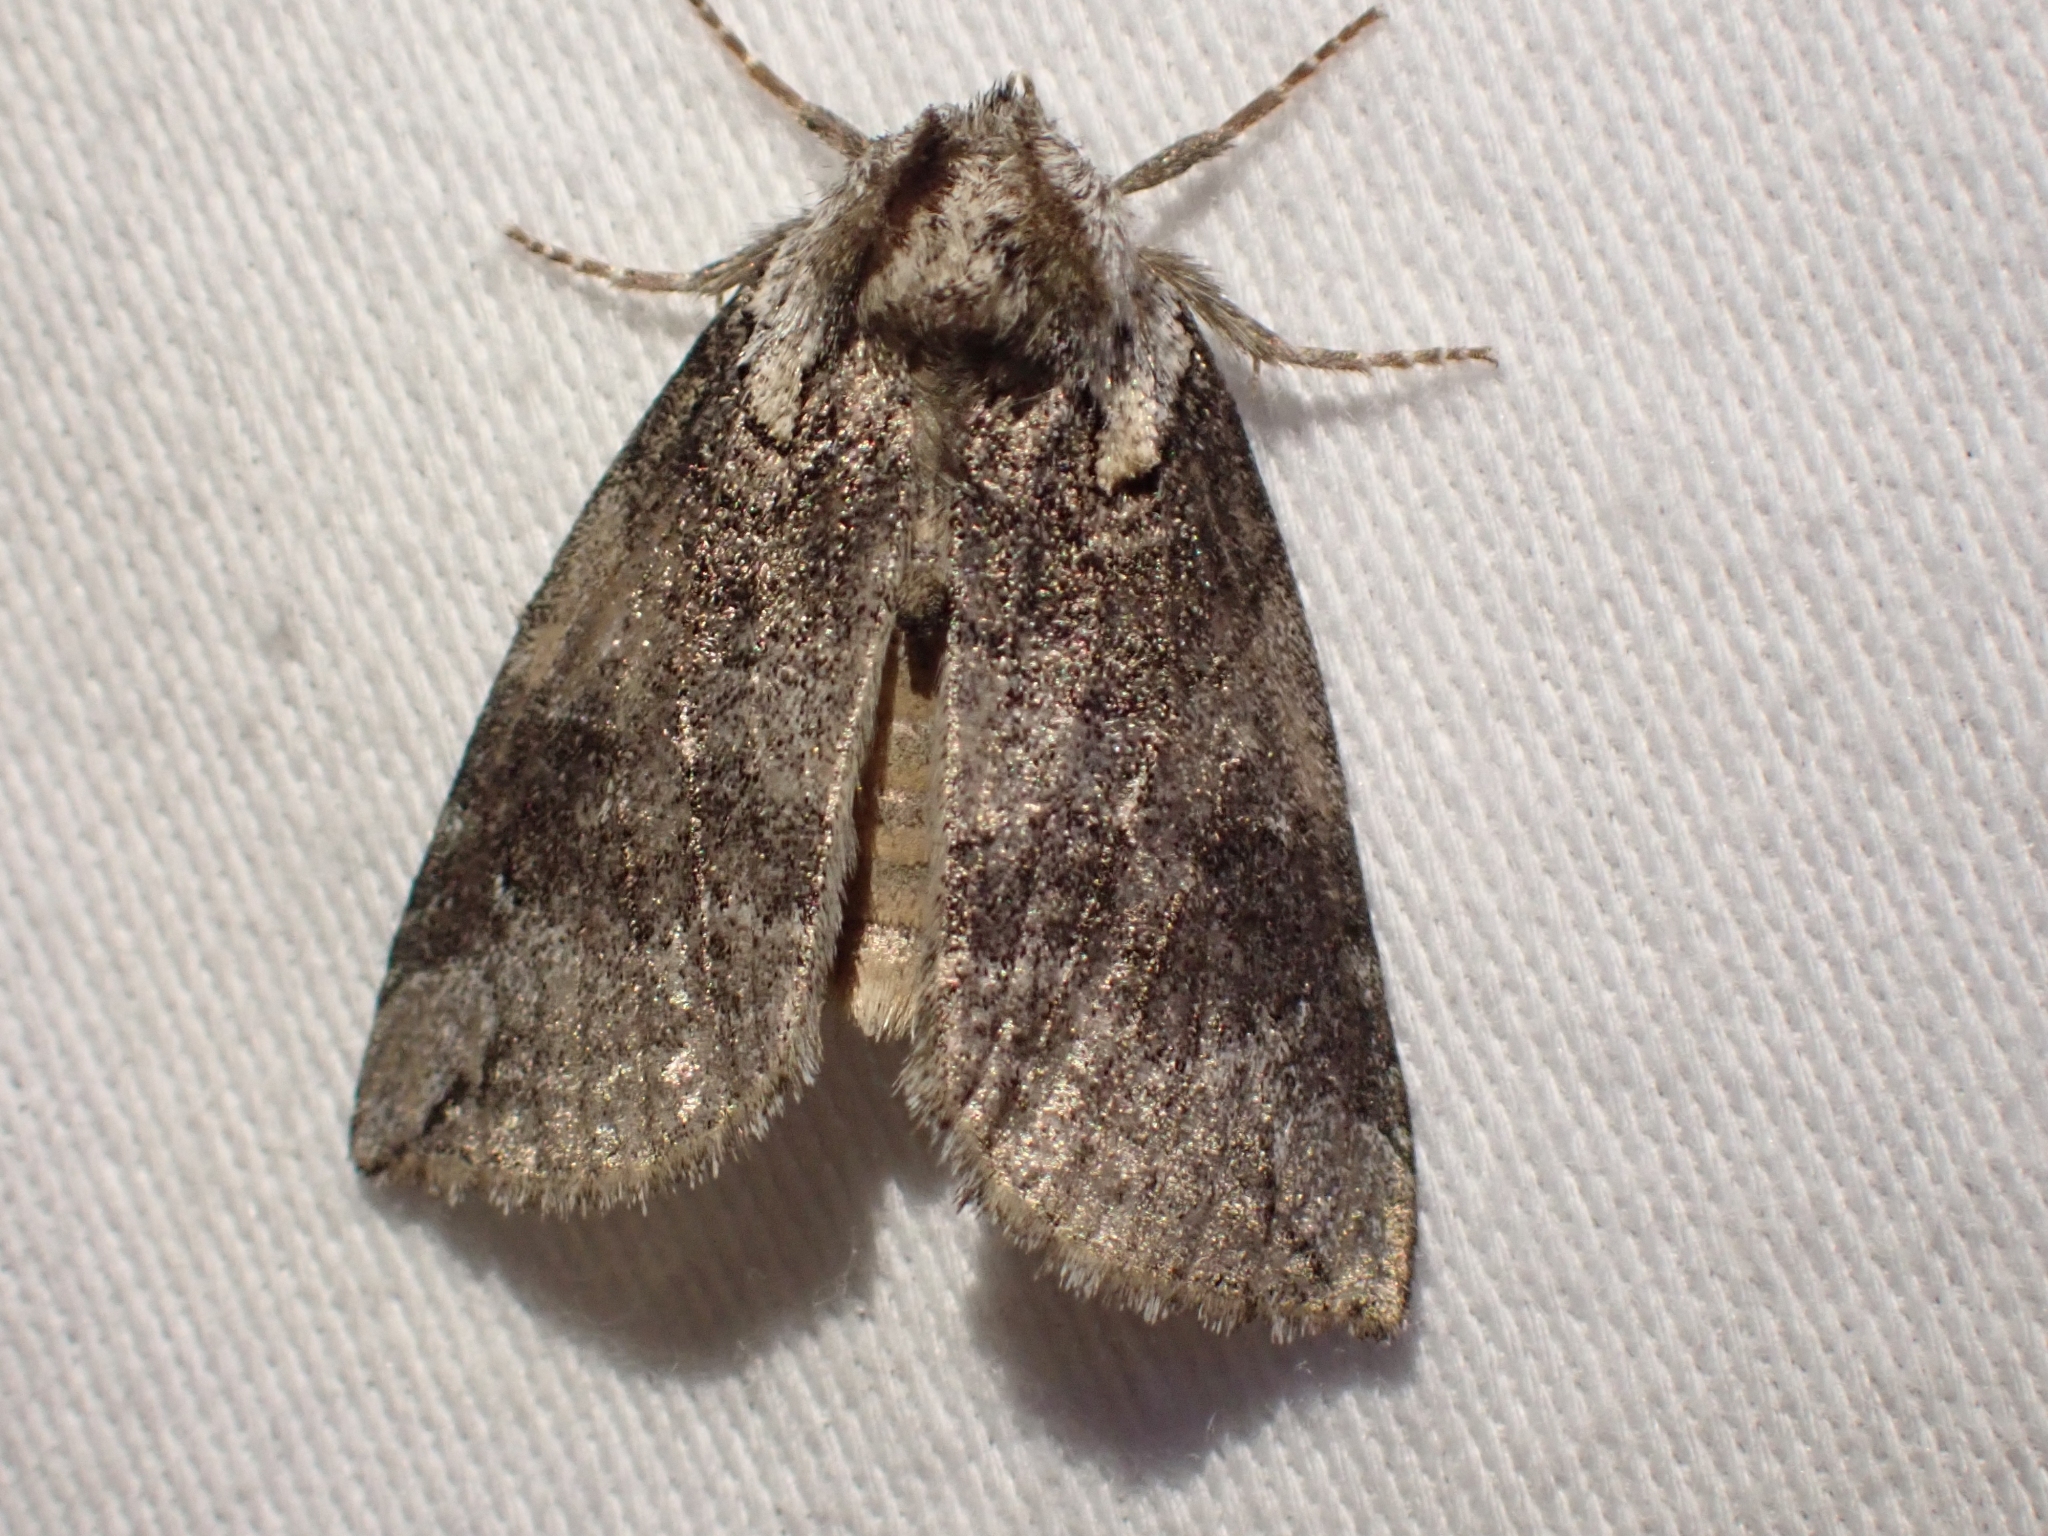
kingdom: Animalia
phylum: Arthropoda
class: Insecta
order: Lepidoptera
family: Drepanidae
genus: Euthyatira
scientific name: Euthyatira semicircularis
